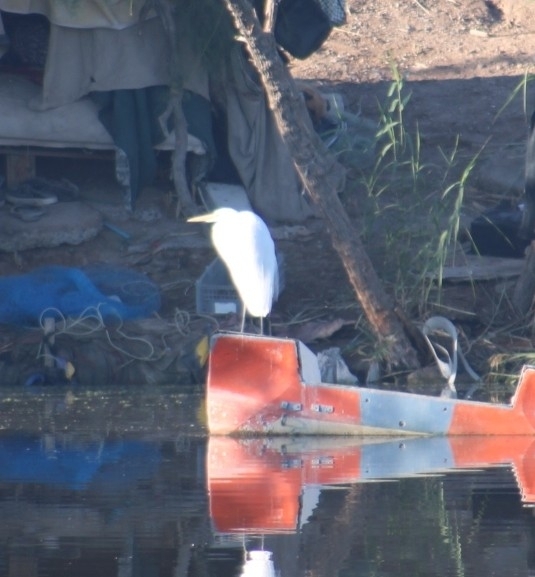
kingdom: Animalia
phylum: Chordata
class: Aves
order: Pelecaniformes
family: Ardeidae
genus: Ardea
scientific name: Ardea alba
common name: Great egret
